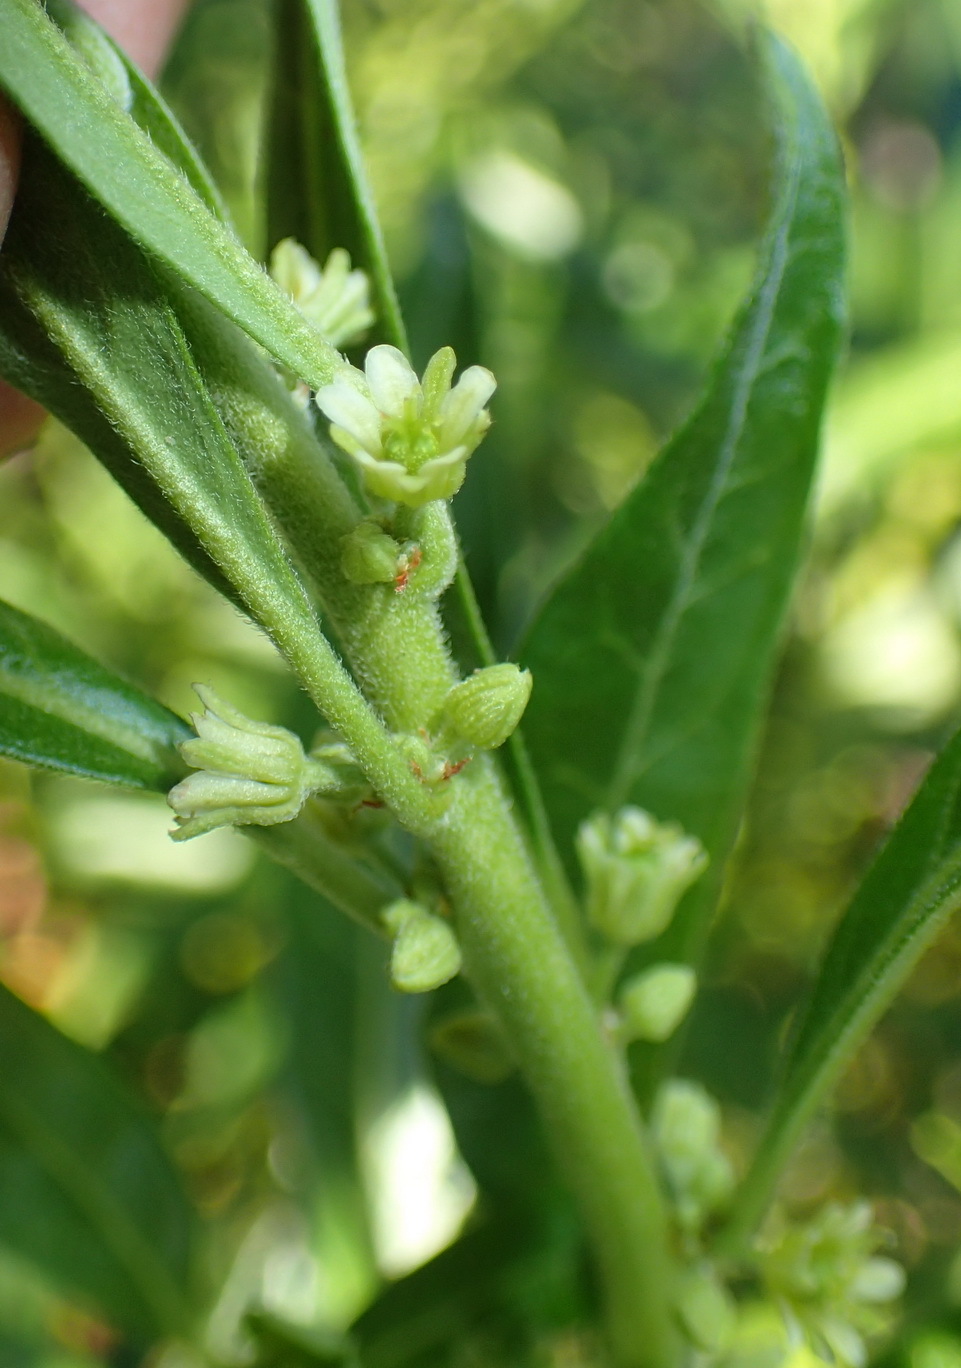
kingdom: Plantae
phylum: Tracheophyta
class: Magnoliopsida
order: Malpighiales
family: Peraceae
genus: Clutia
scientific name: Clutia daphnoides
